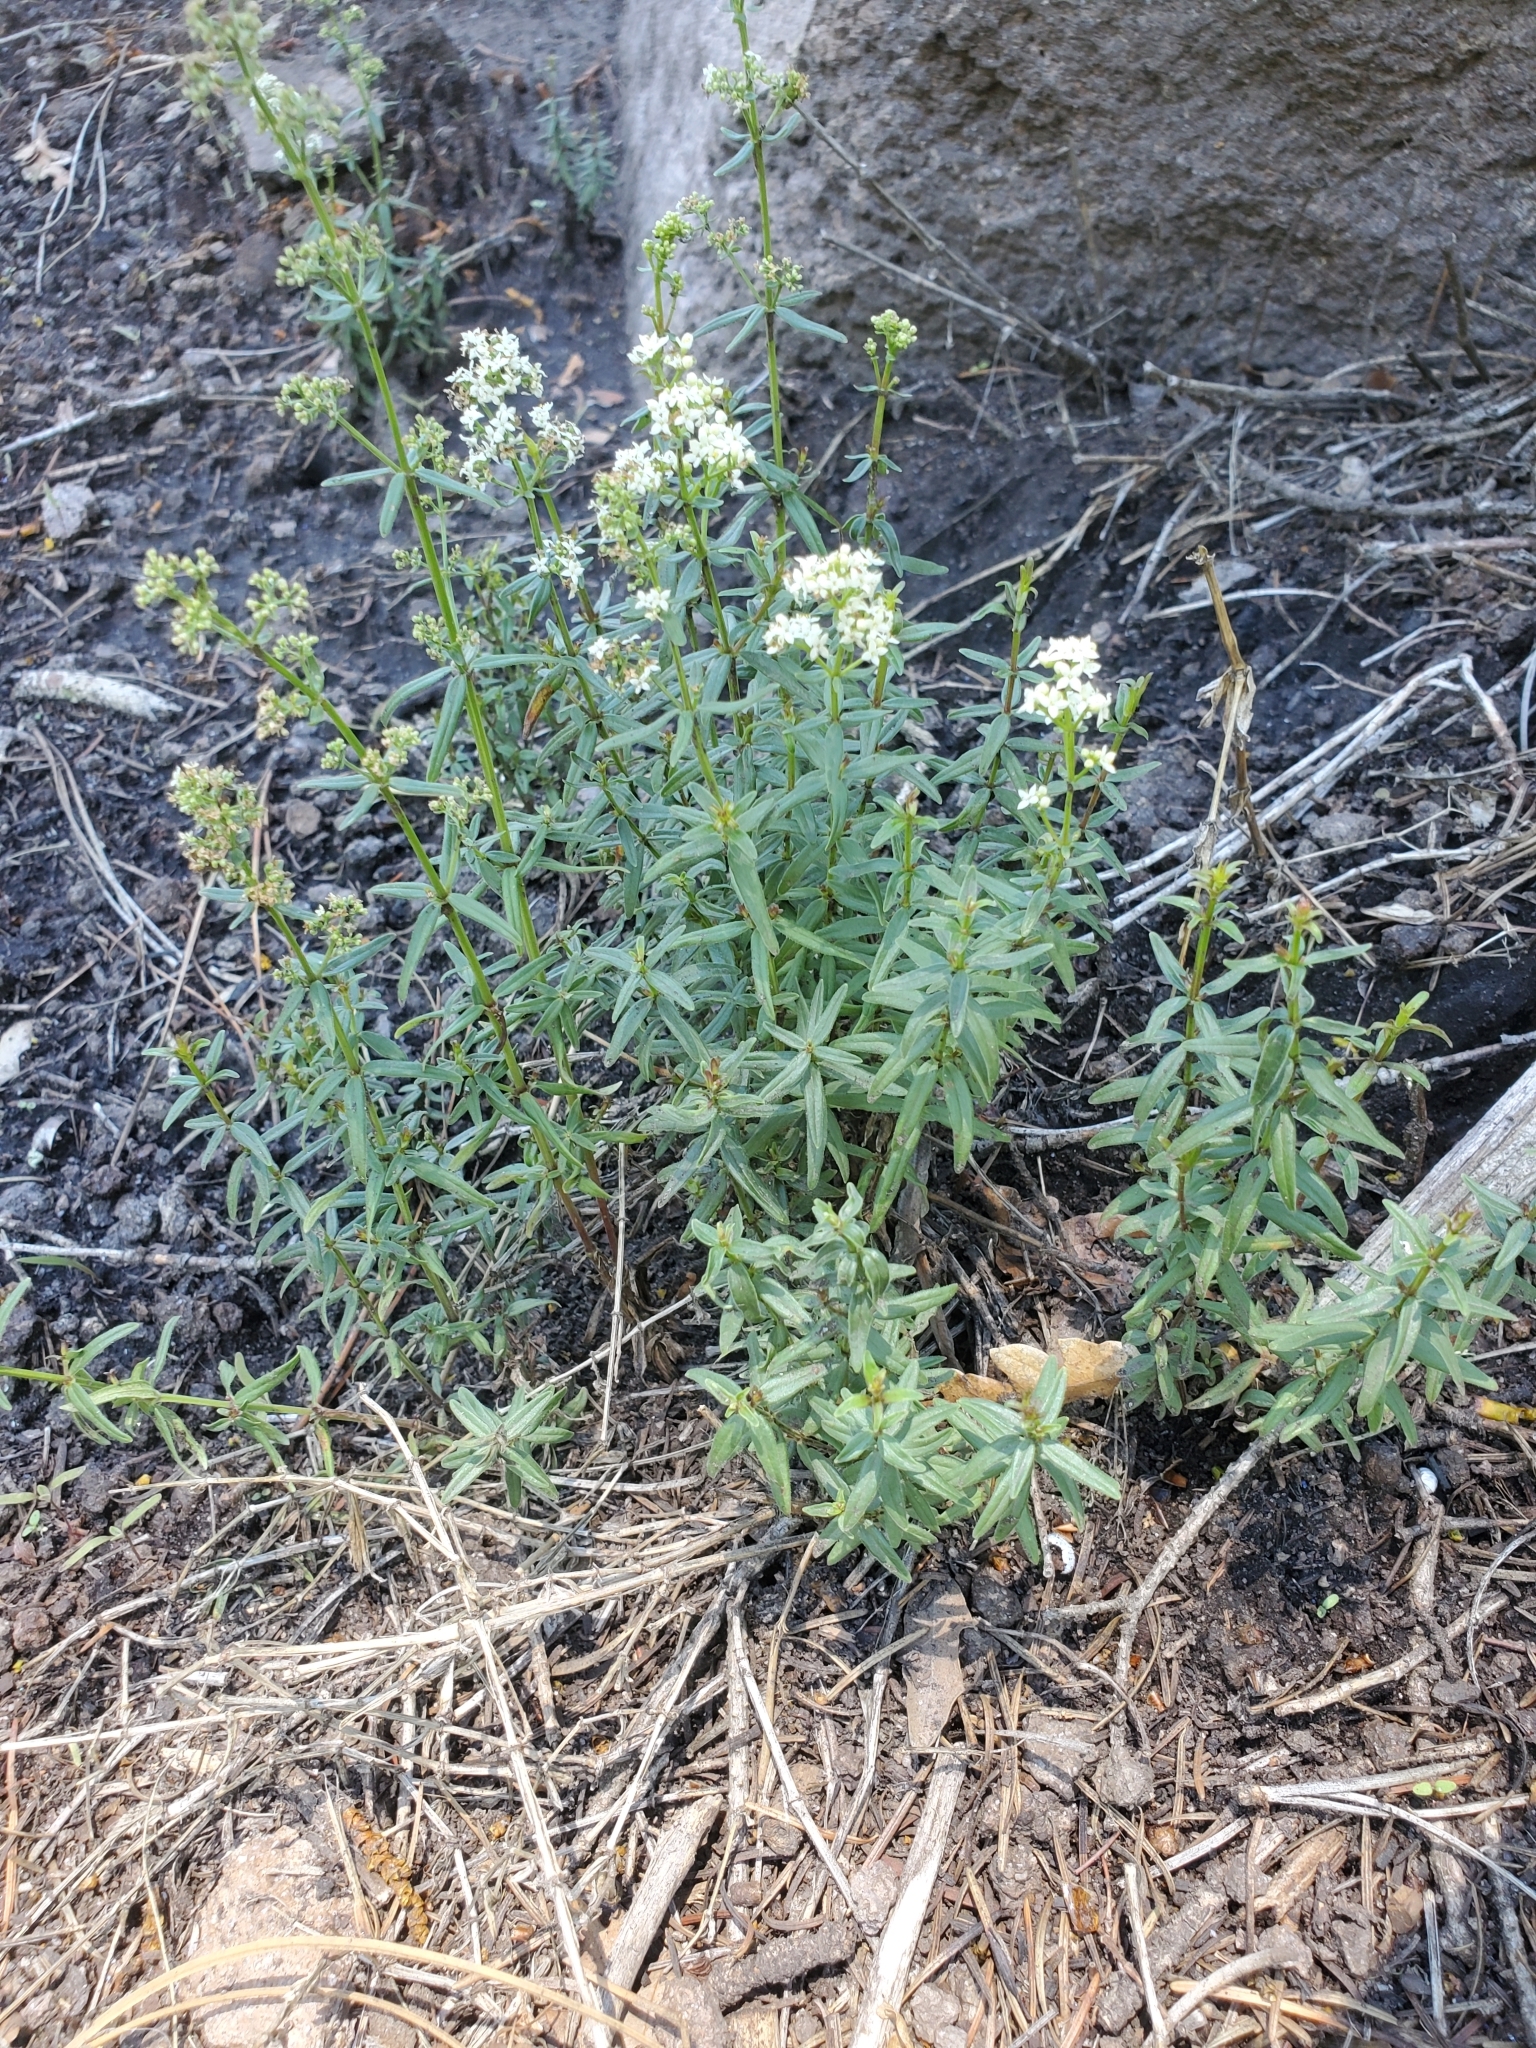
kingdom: Plantae
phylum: Tracheophyta
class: Magnoliopsida
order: Gentianales
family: Rubiaceae
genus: Galium
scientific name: Galium boreale
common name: Northern bedstraw
